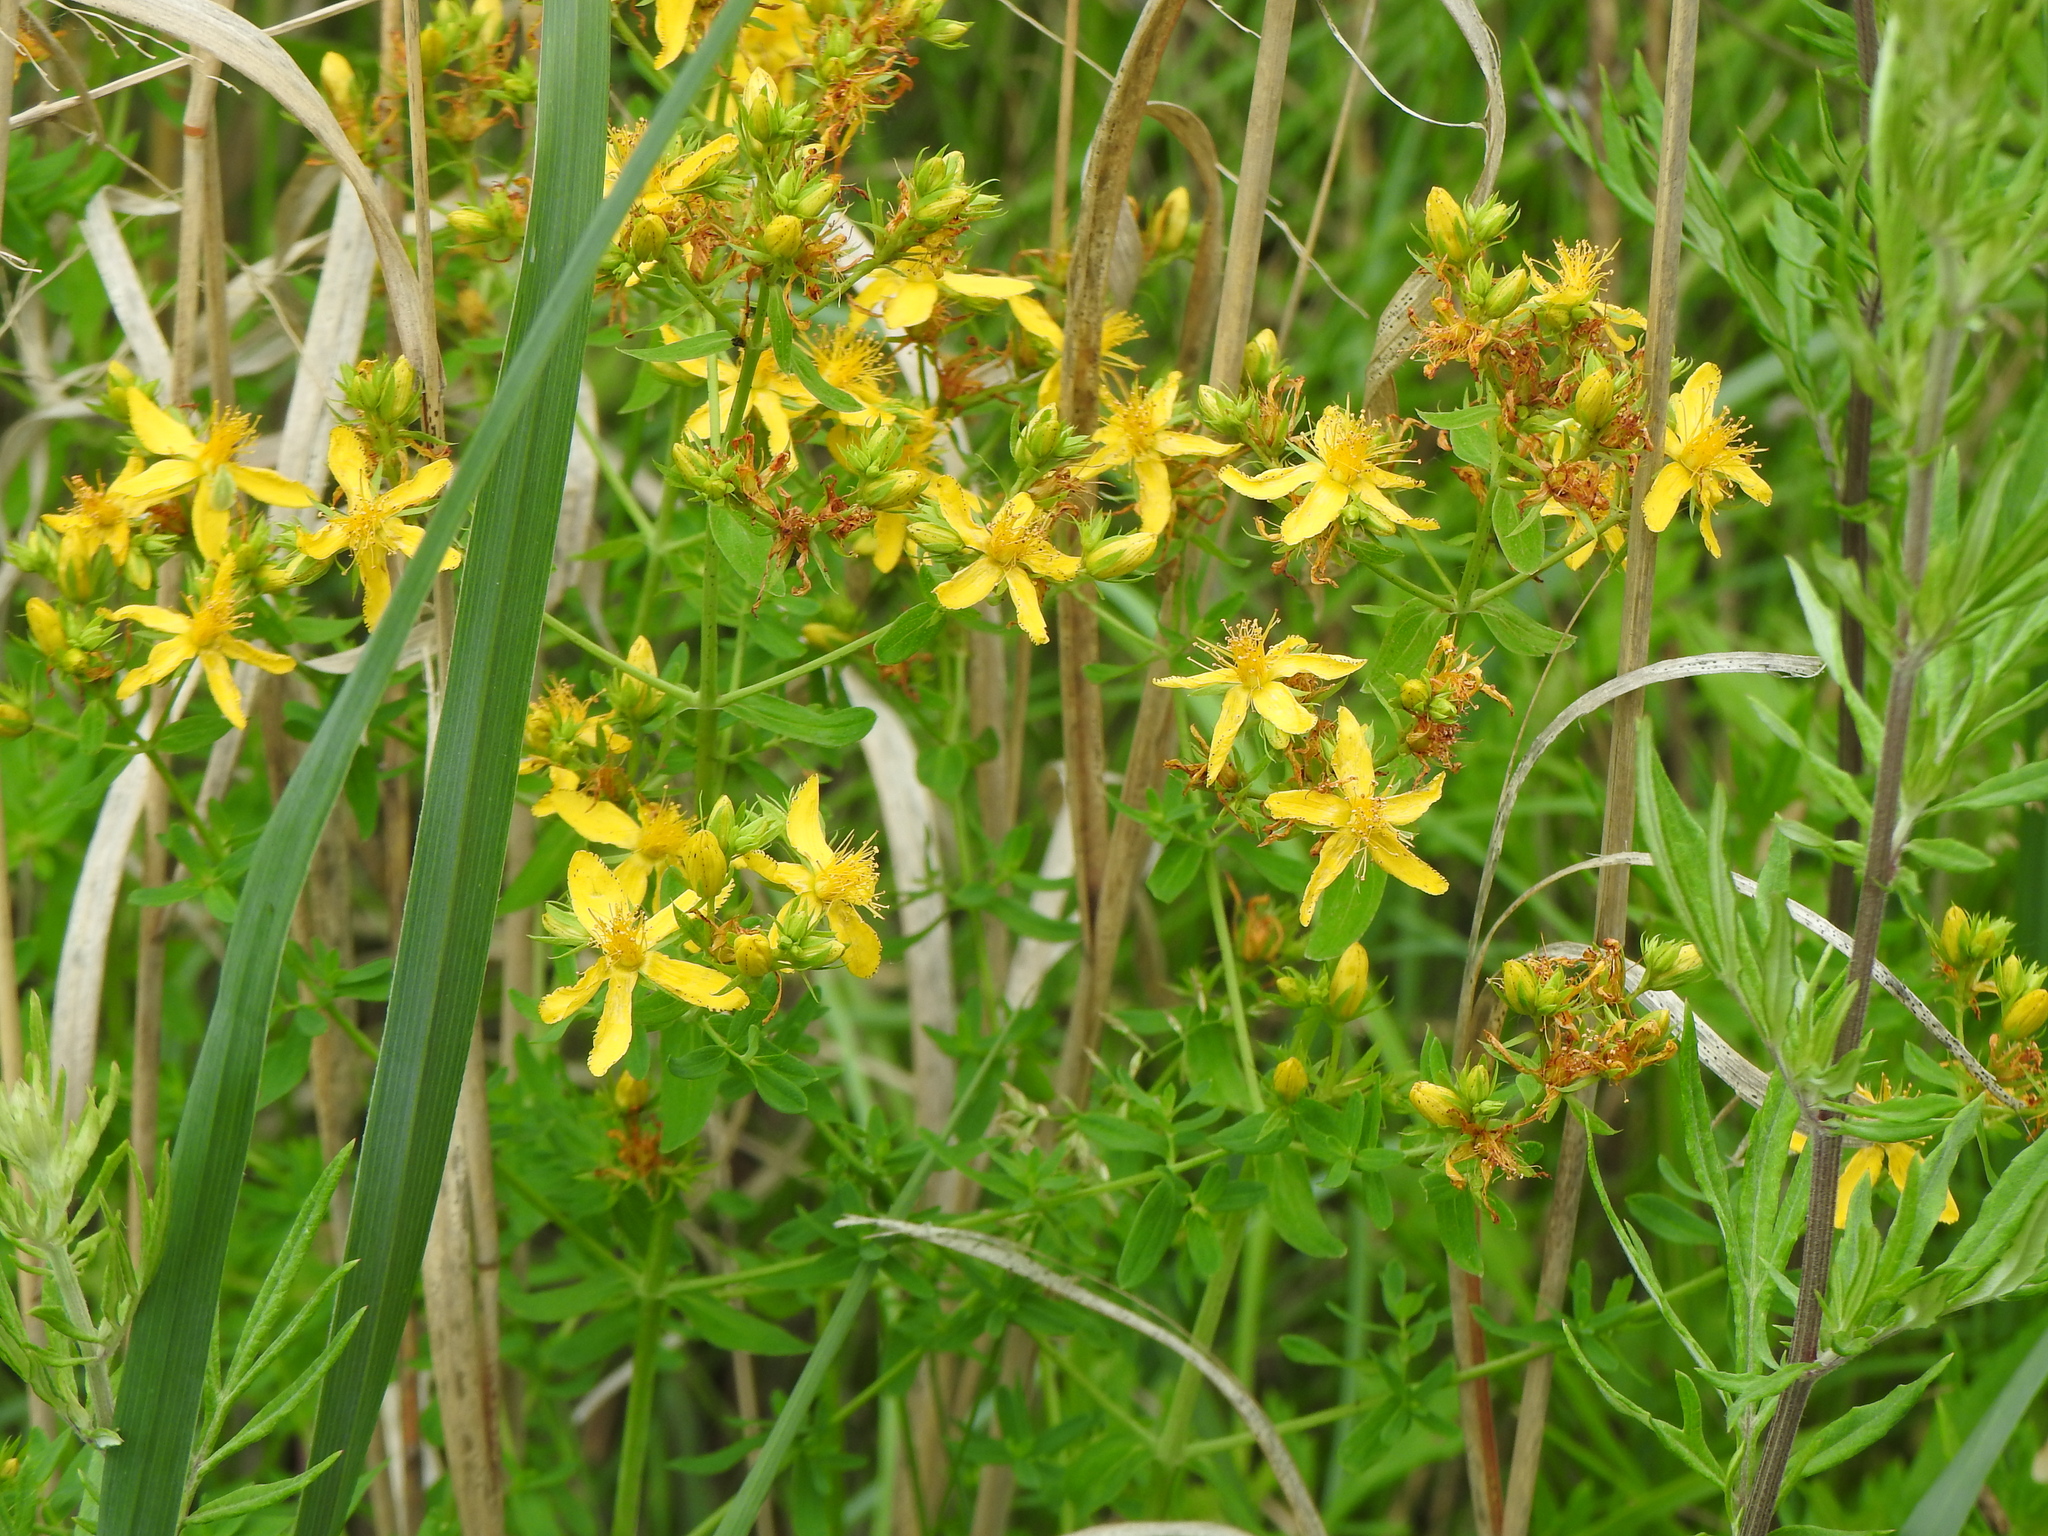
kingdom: Plantae
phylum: Tracheophyta
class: Magnoliopsida
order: Malpighiales
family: Hypericaceae
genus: Hypericum
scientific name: Hypericum perforatum
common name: Common st. johnswort
